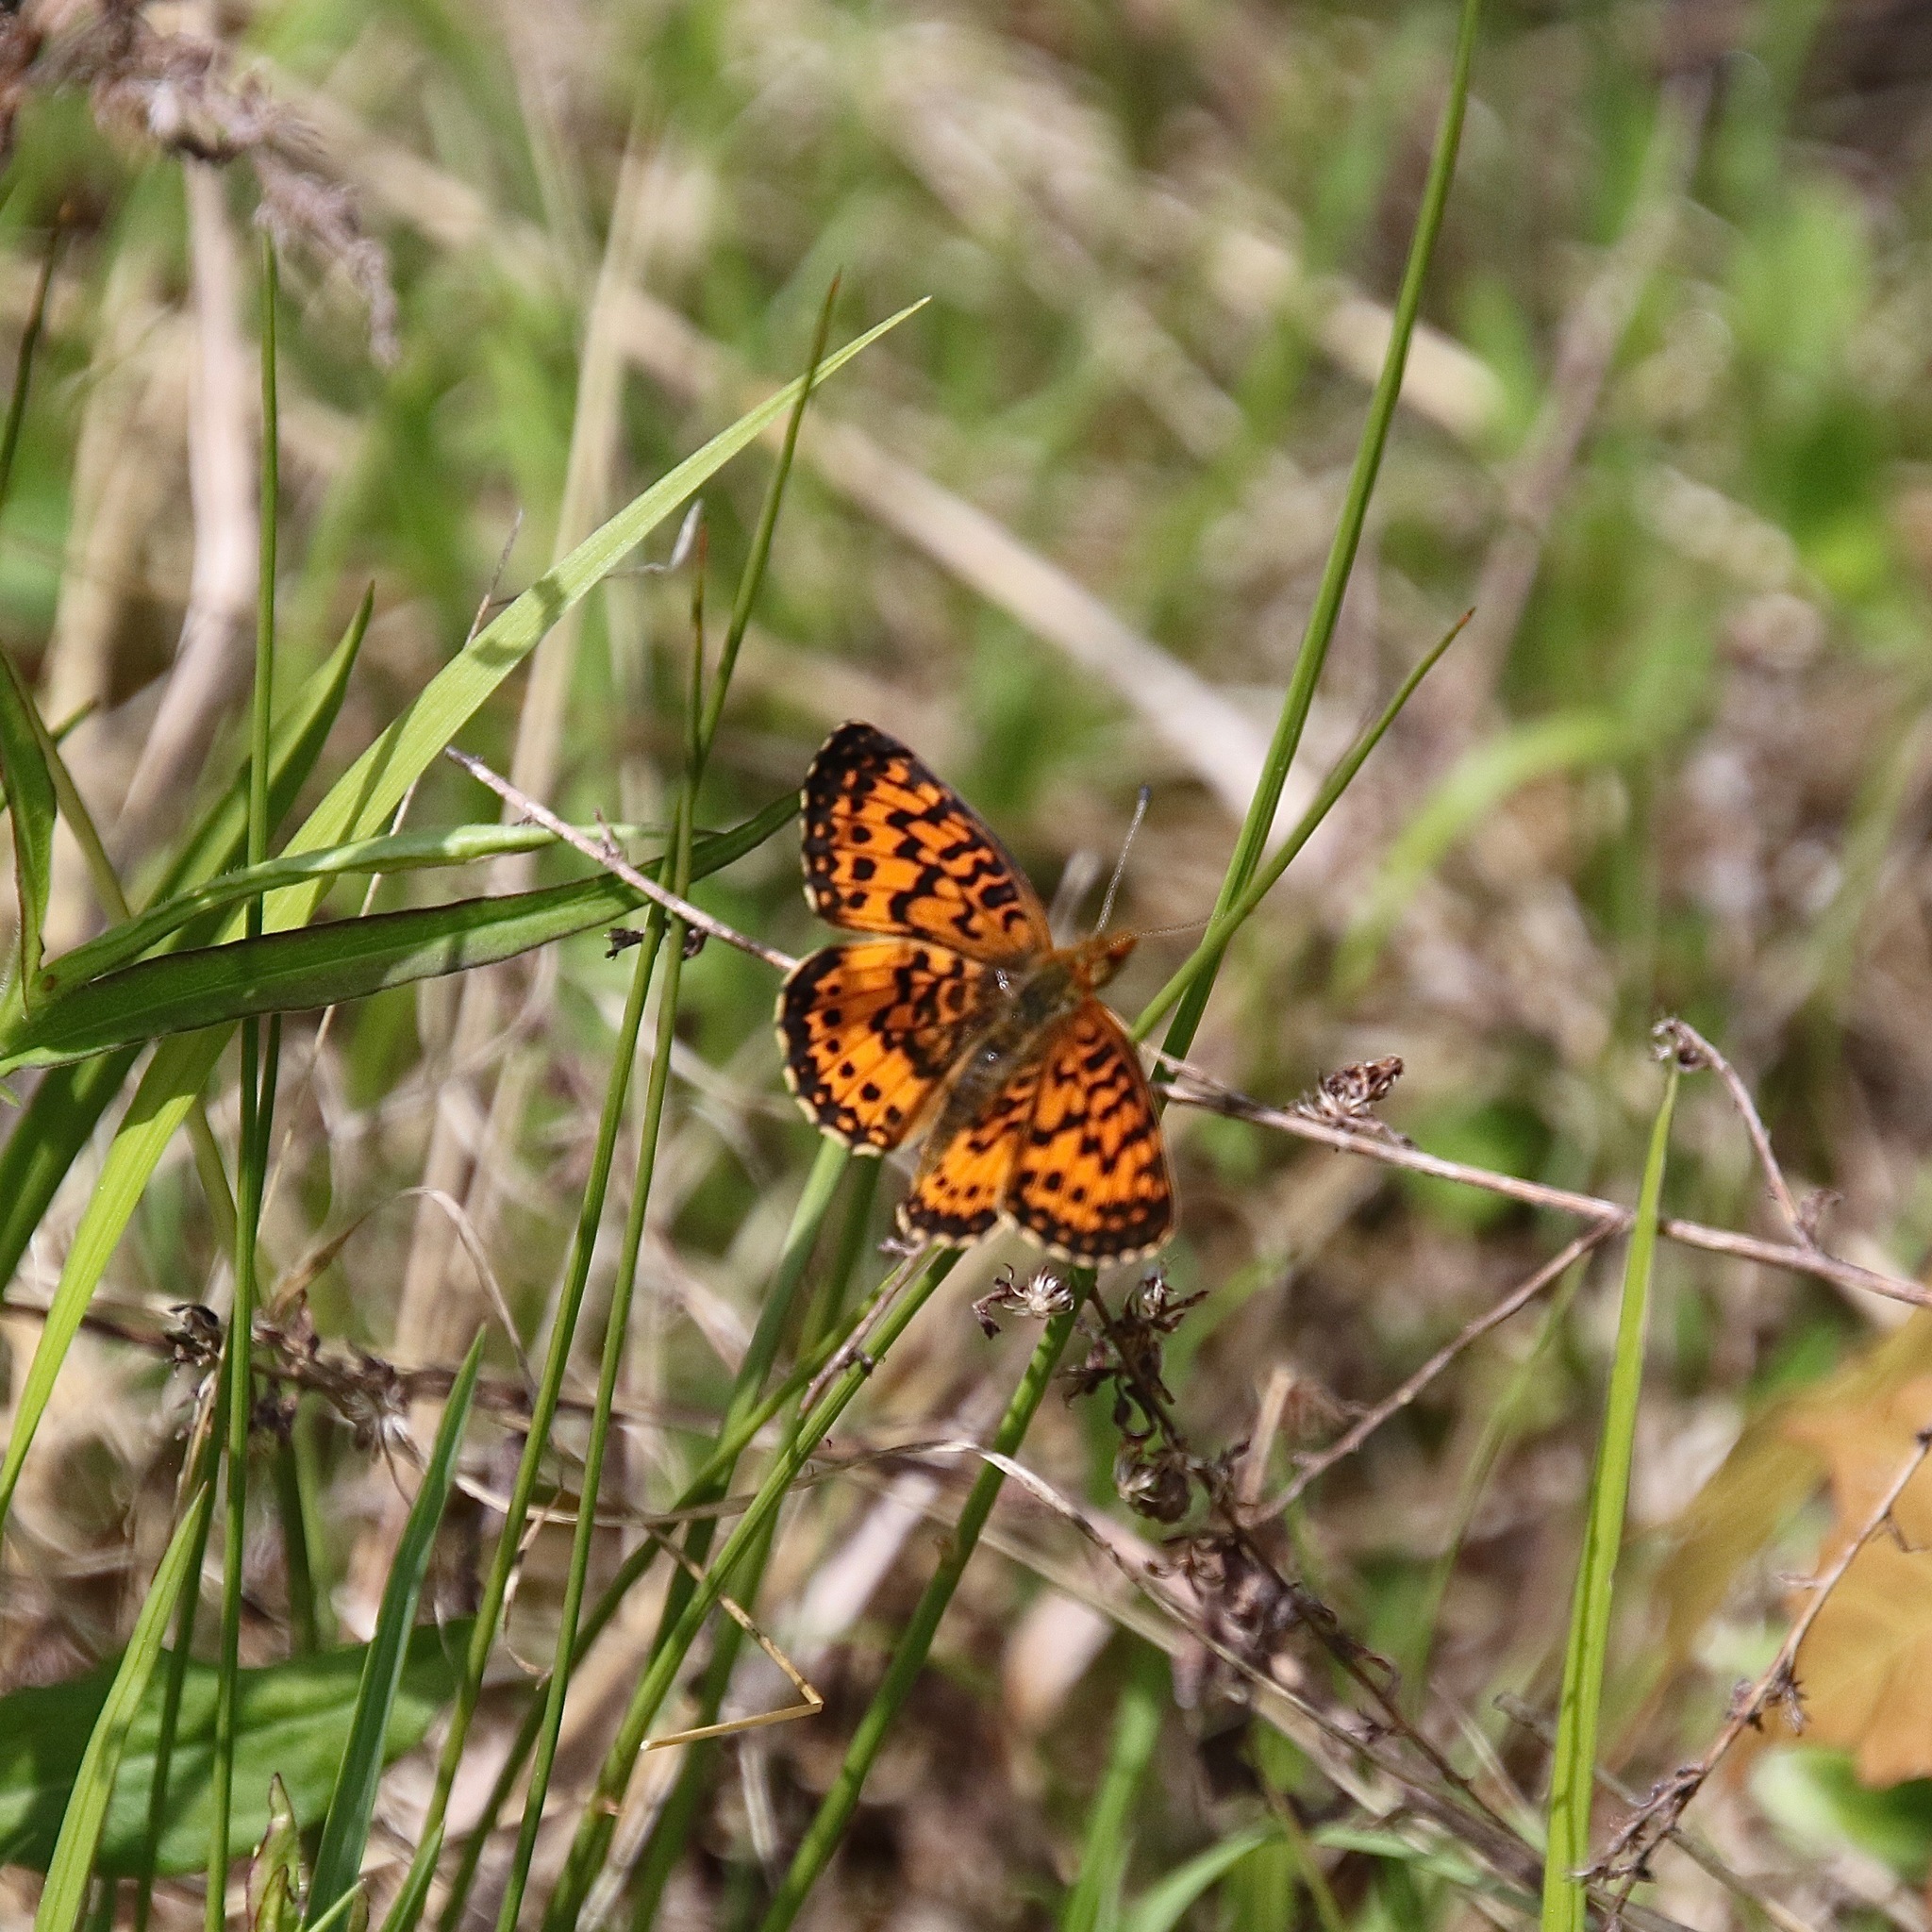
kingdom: Animalia
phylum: Arthropoda
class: Insecta
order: Lepidoptera
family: Nymphalidae
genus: Boloria
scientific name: Boloria
